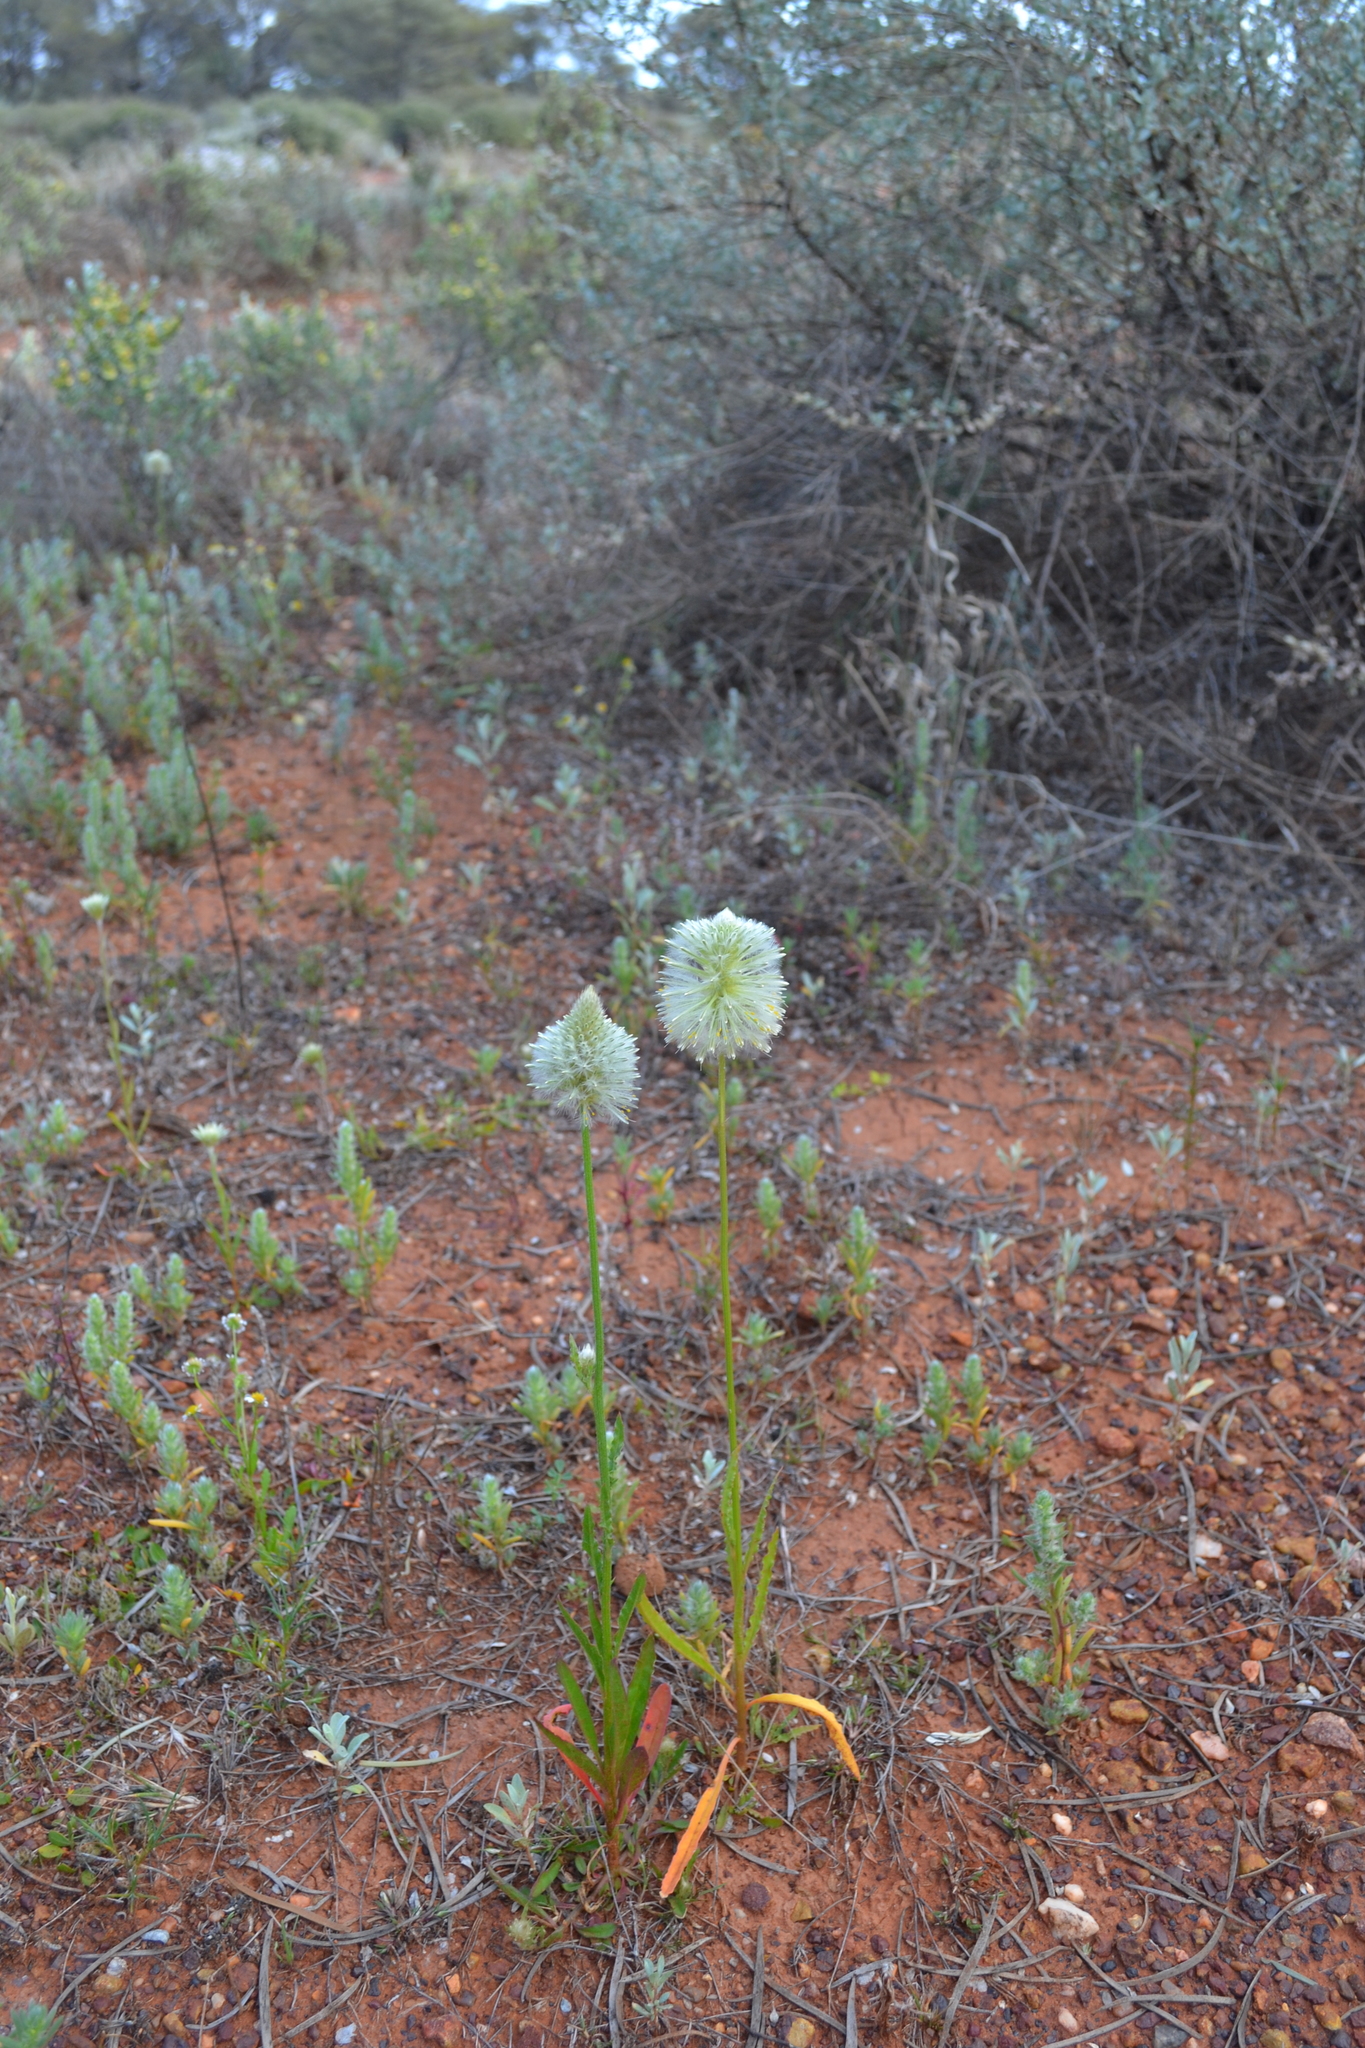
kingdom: Plantae
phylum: Tracheophyta
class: Magnoliopsida
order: Caryophyllales
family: Amaranthaceae
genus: Ptilotus
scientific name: Ptilotus xerophilus
